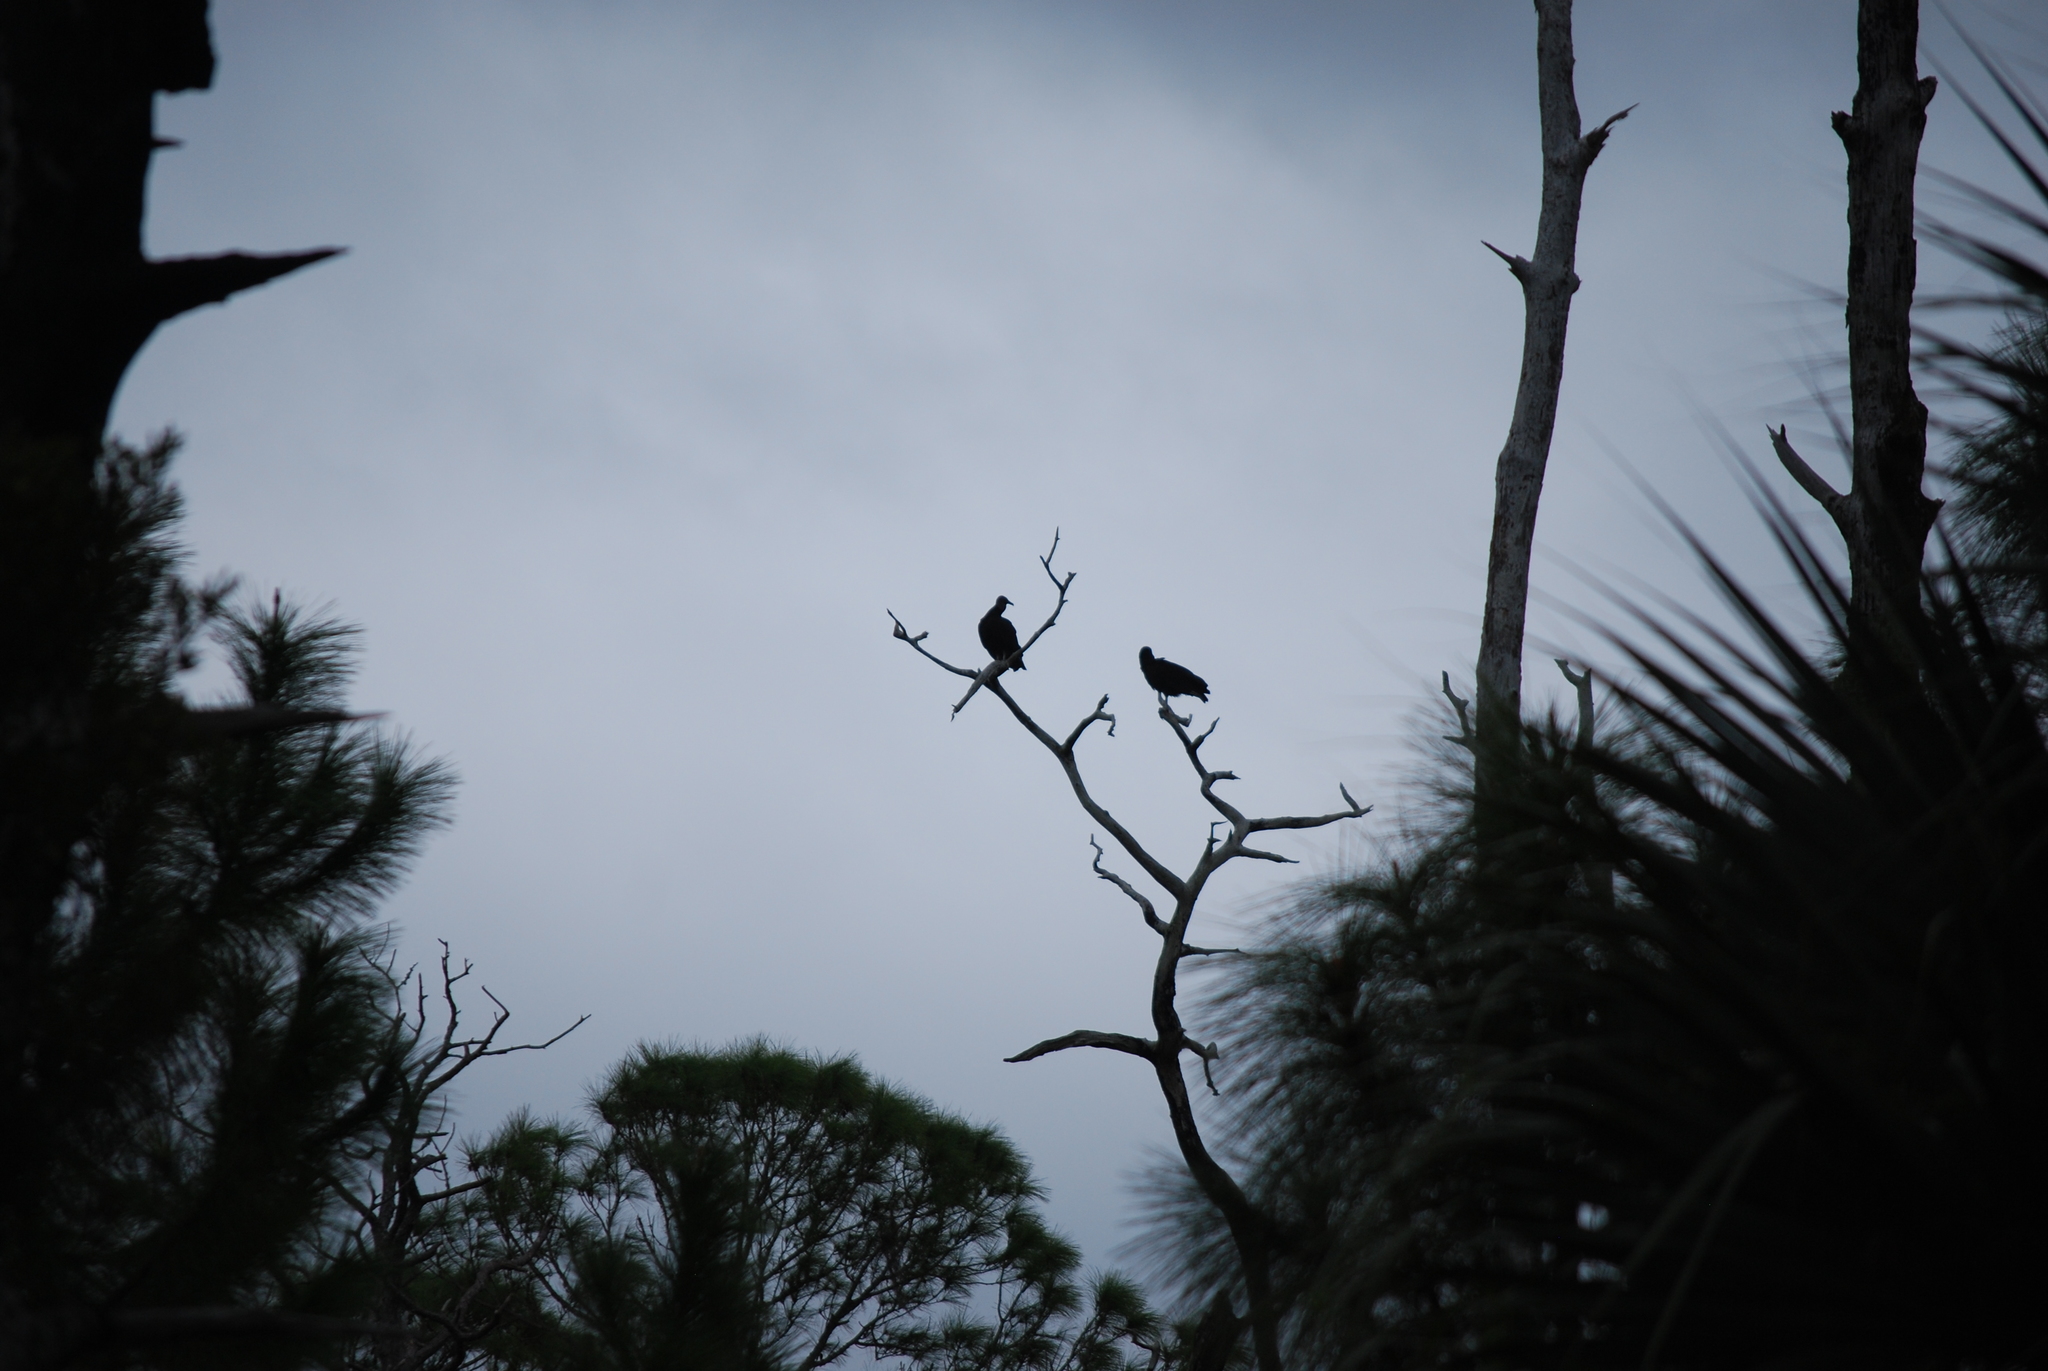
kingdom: Animalia
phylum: Chordata
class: Aves
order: Accipitriformes
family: Cathartidae
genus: Coragyps
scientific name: Coragyps atratus
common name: Black vulture
